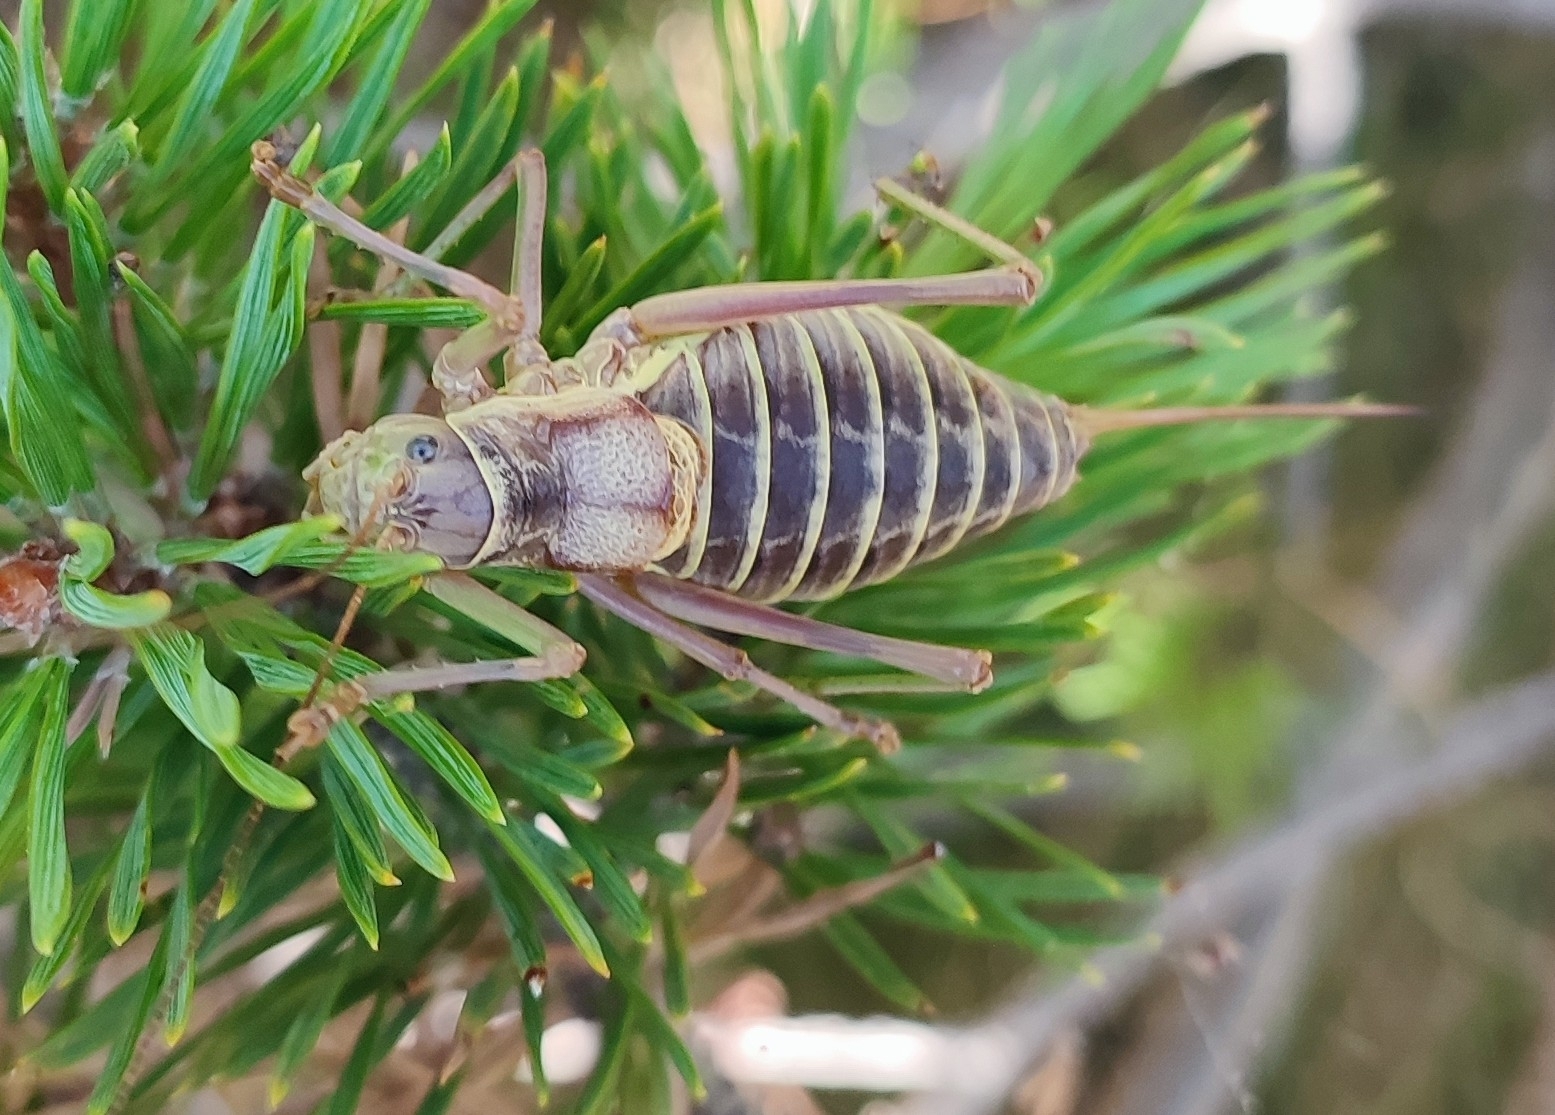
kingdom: Animalia
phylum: Arthropoda
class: Insecta
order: Orthoptera
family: Tettigoniidae
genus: Ephippiger
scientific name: Ephippiger diurnus
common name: Western saddle bush-cricket
